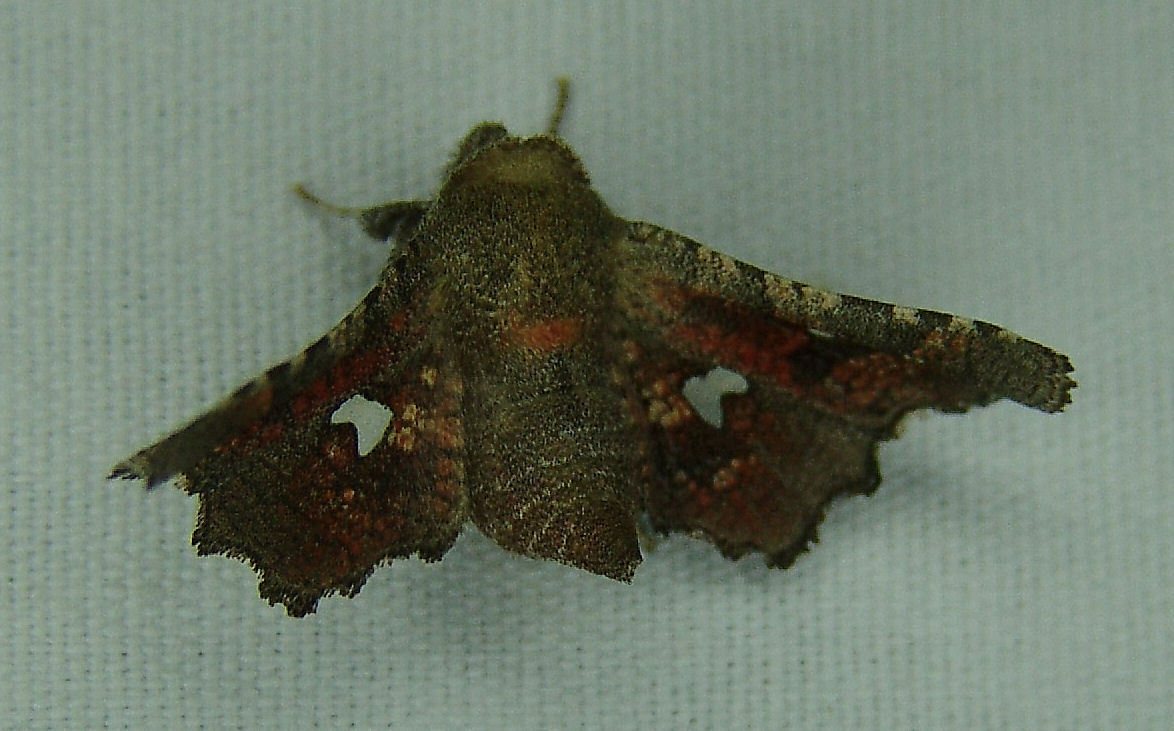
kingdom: Animalia
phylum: Arthropoda
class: Insecta
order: Lepidoptera
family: Thyrididae
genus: Dysodia
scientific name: Dysodia granulata
